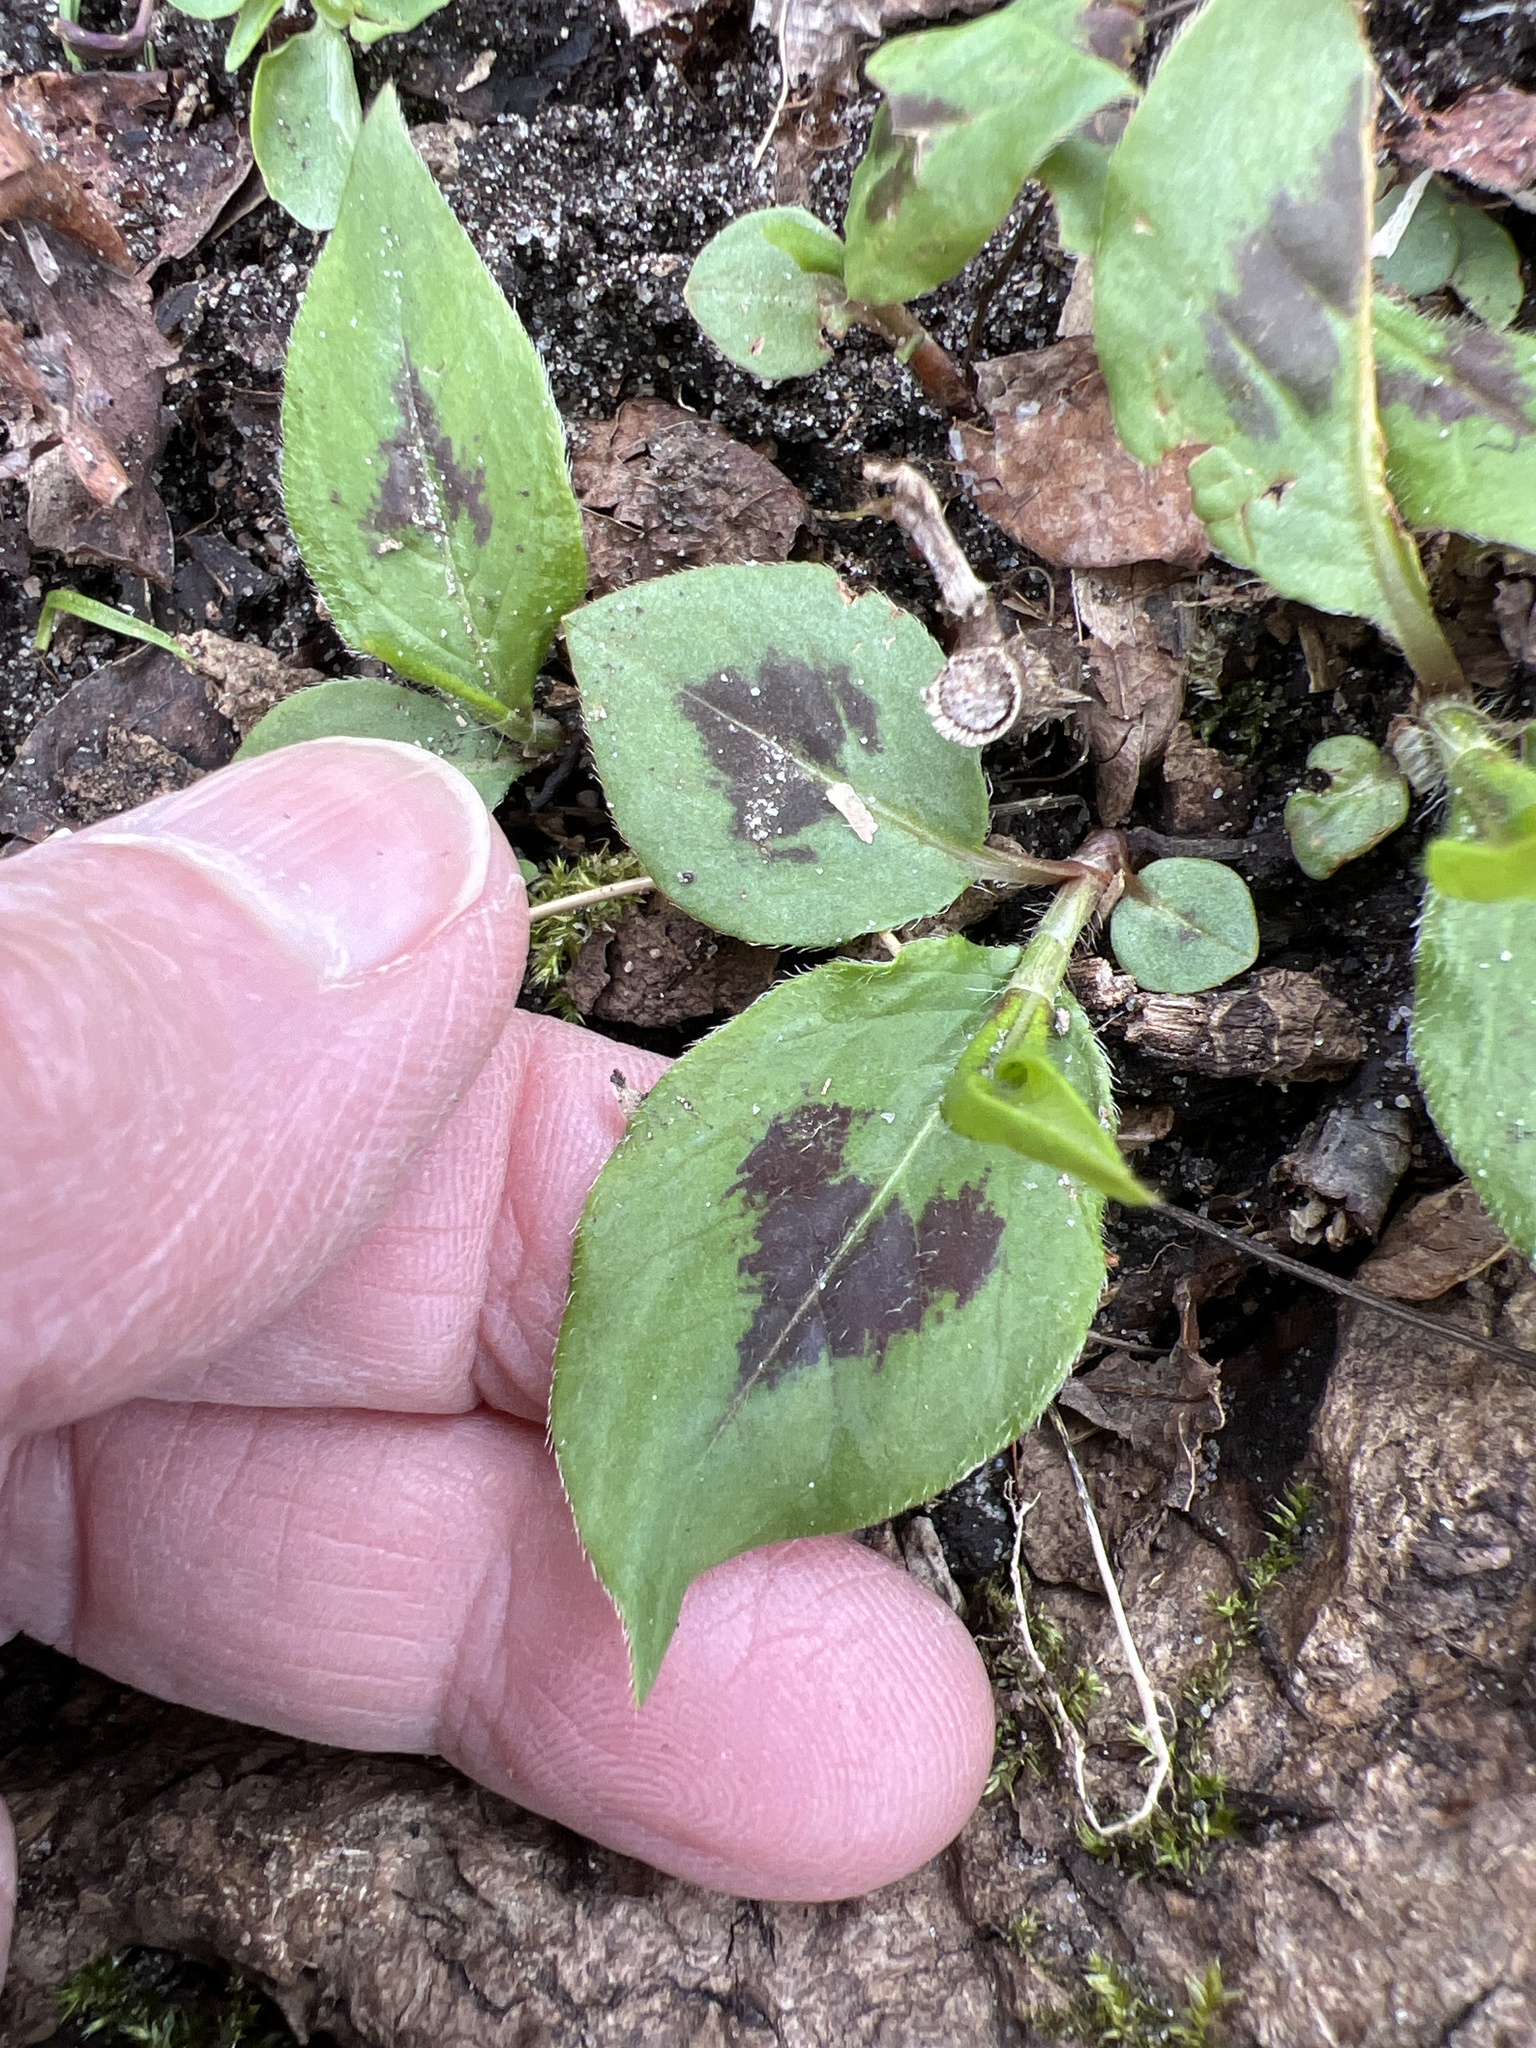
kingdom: Plantae
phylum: Tracheophyta
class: Magnoliopsida
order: Caryophyllales
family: Polygonaceae
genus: Persicaria
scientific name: Persicaria virginiana
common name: Jumpseed
